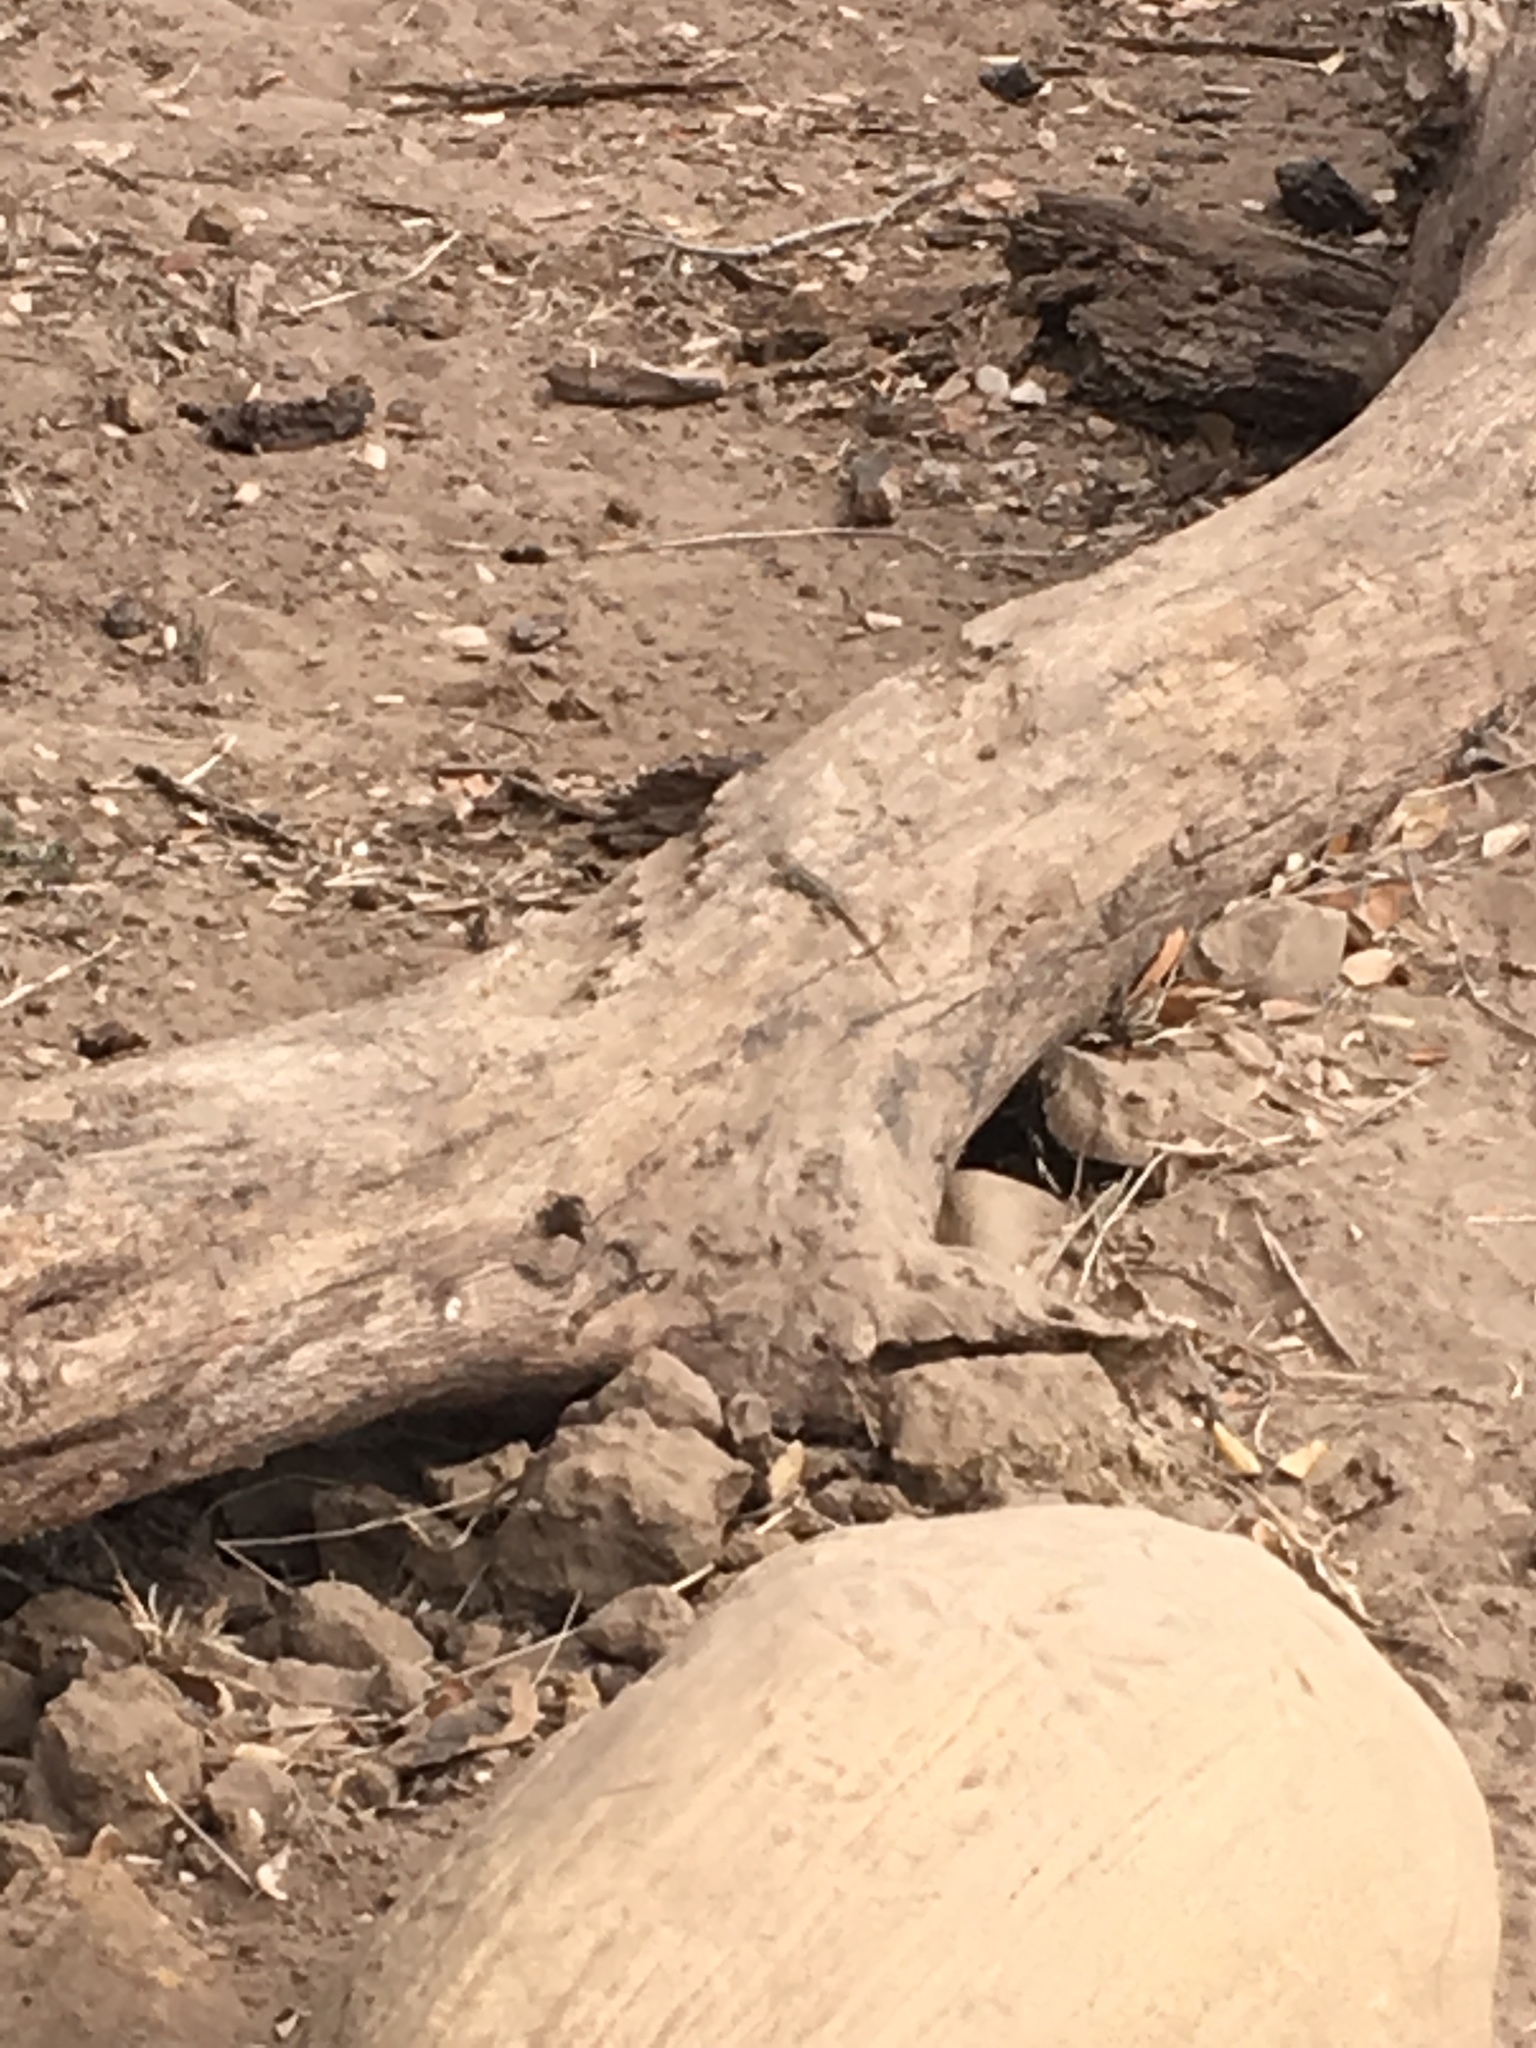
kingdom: Animalia
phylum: Chordata
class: Squamata
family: Phrynosomatidae
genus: Sceloporus
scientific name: Sceloporus occidentalis
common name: Western fence lizard
